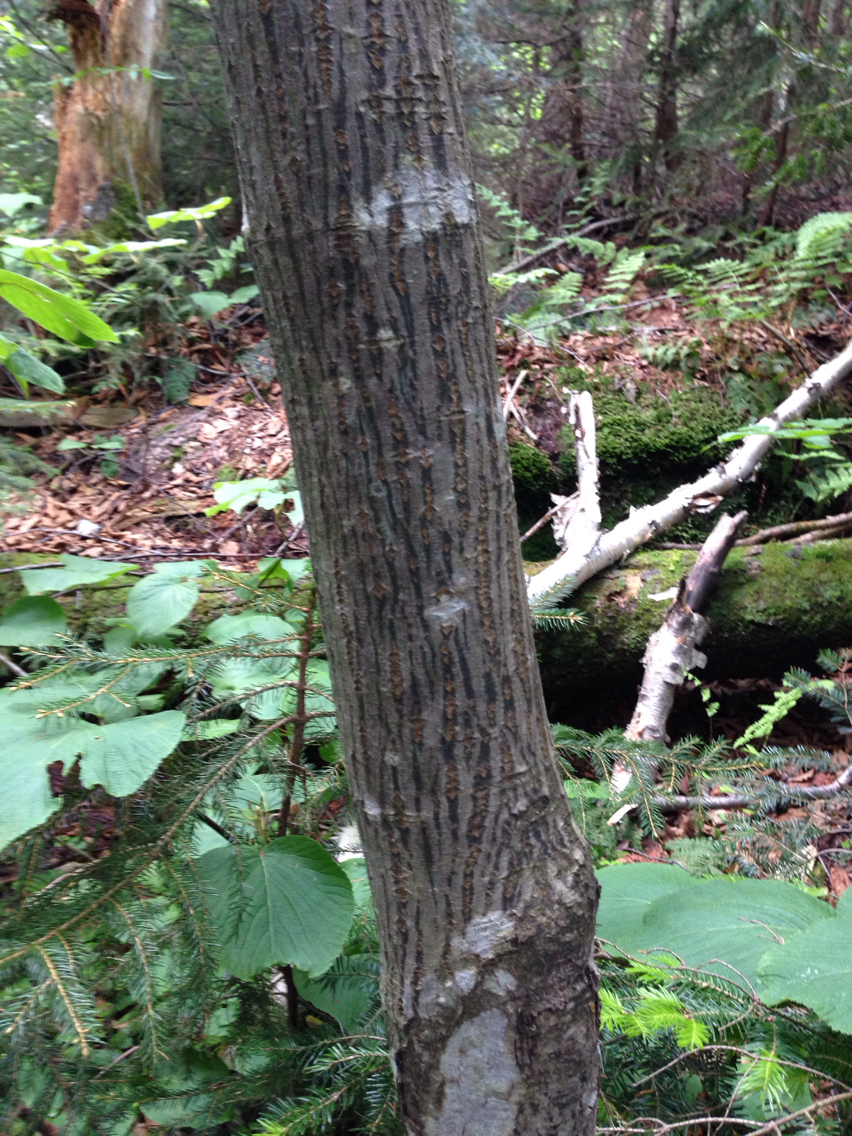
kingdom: Plantae
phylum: Tracheophyta
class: Magnoliopsida
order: Sapindales
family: Sapindaceae
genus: Acer
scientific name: Acer pensylvanicum
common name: Moosewood
